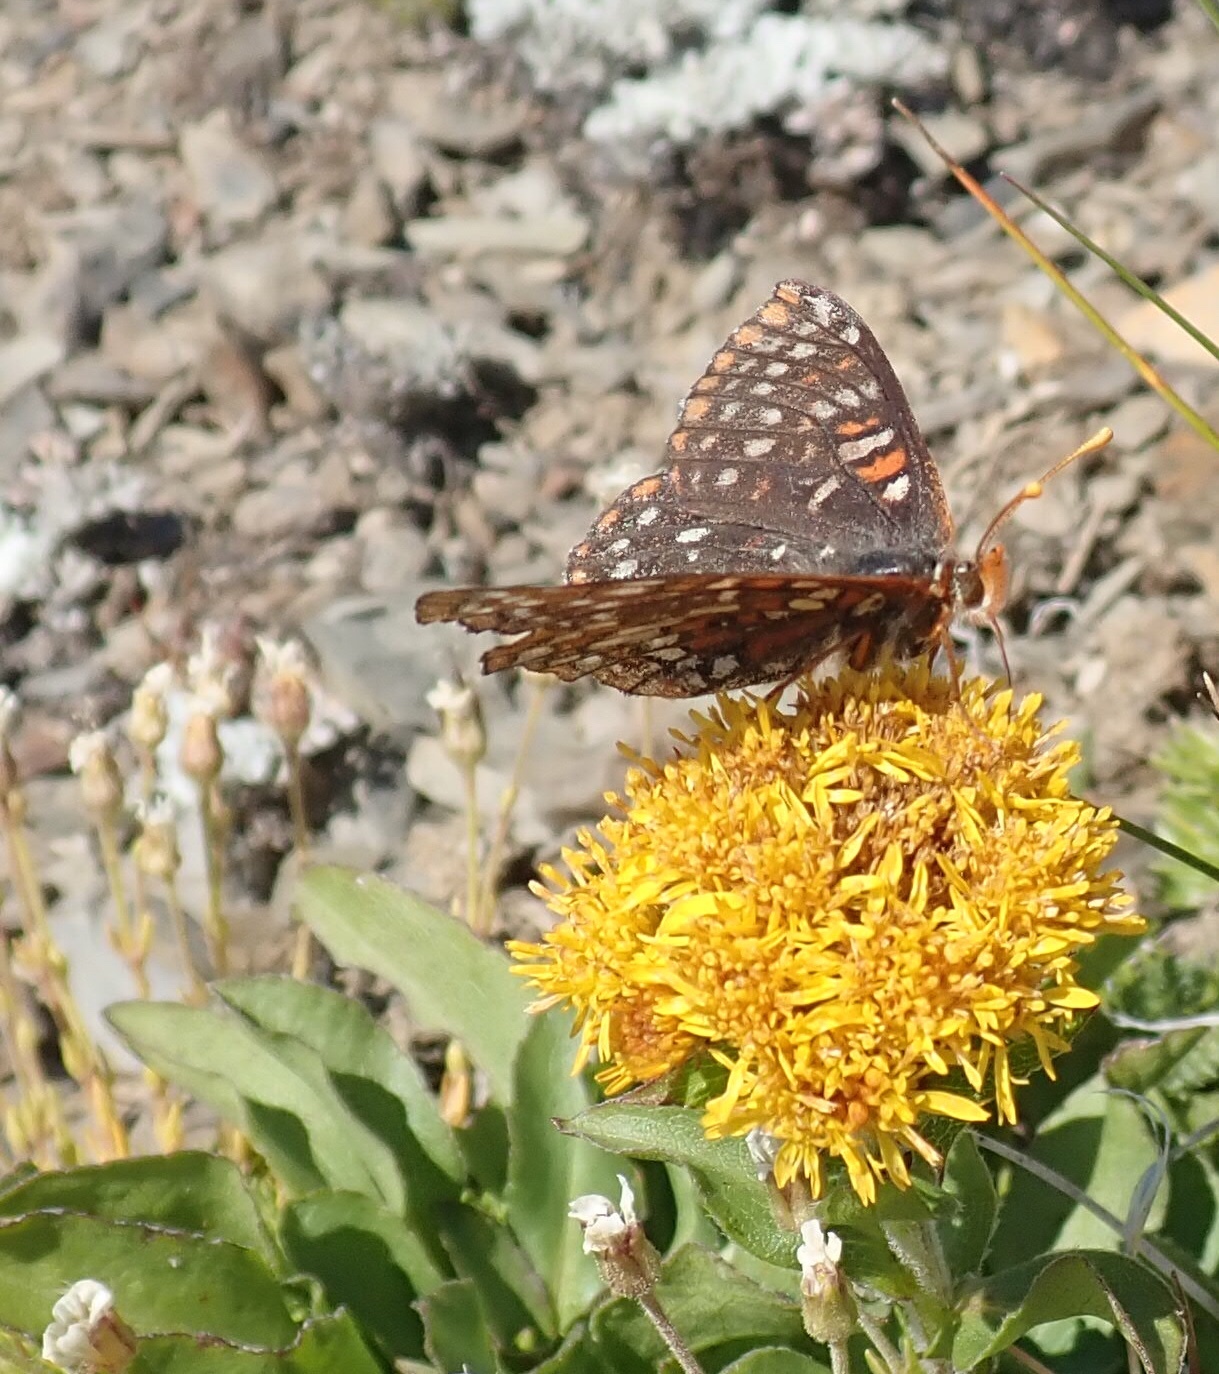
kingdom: Animalia
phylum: Arthropoda
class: Insecta
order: Lepidoptera
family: Nymphalidae
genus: Occidryas
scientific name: Occidryas colon
